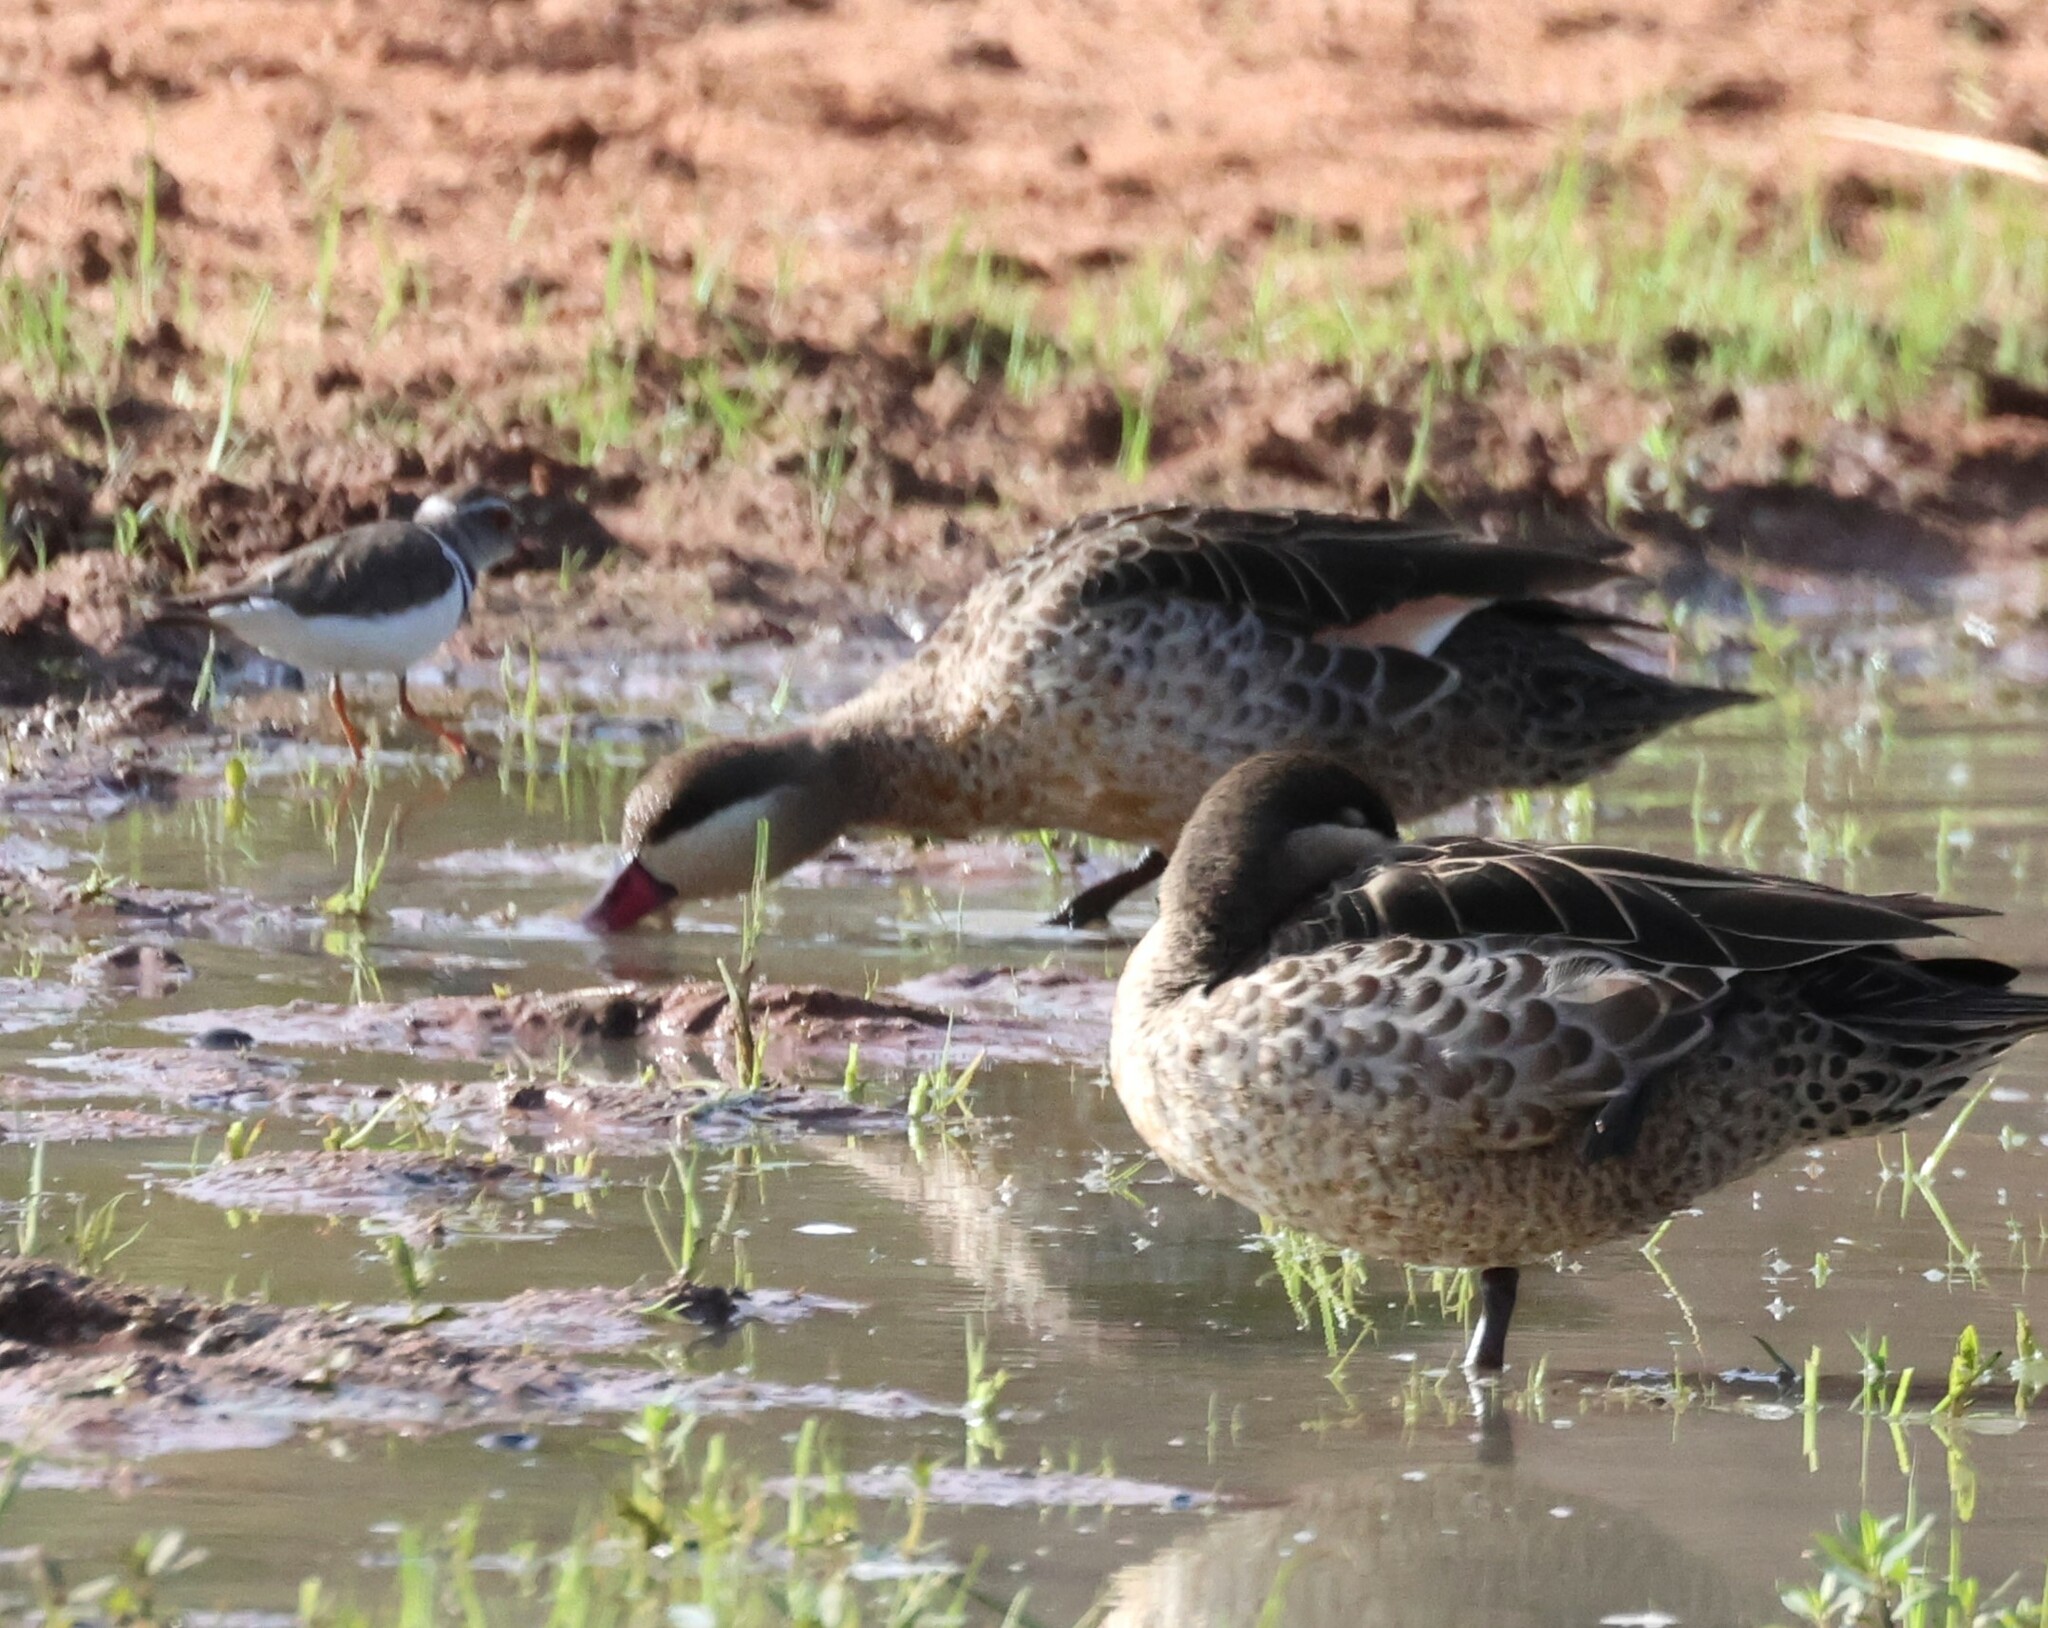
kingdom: Animalia
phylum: Chordata
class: Aves
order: Anseriformes
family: Anatidae
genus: Anas
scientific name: Anas erythrorhyncha
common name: Red-billed teal
